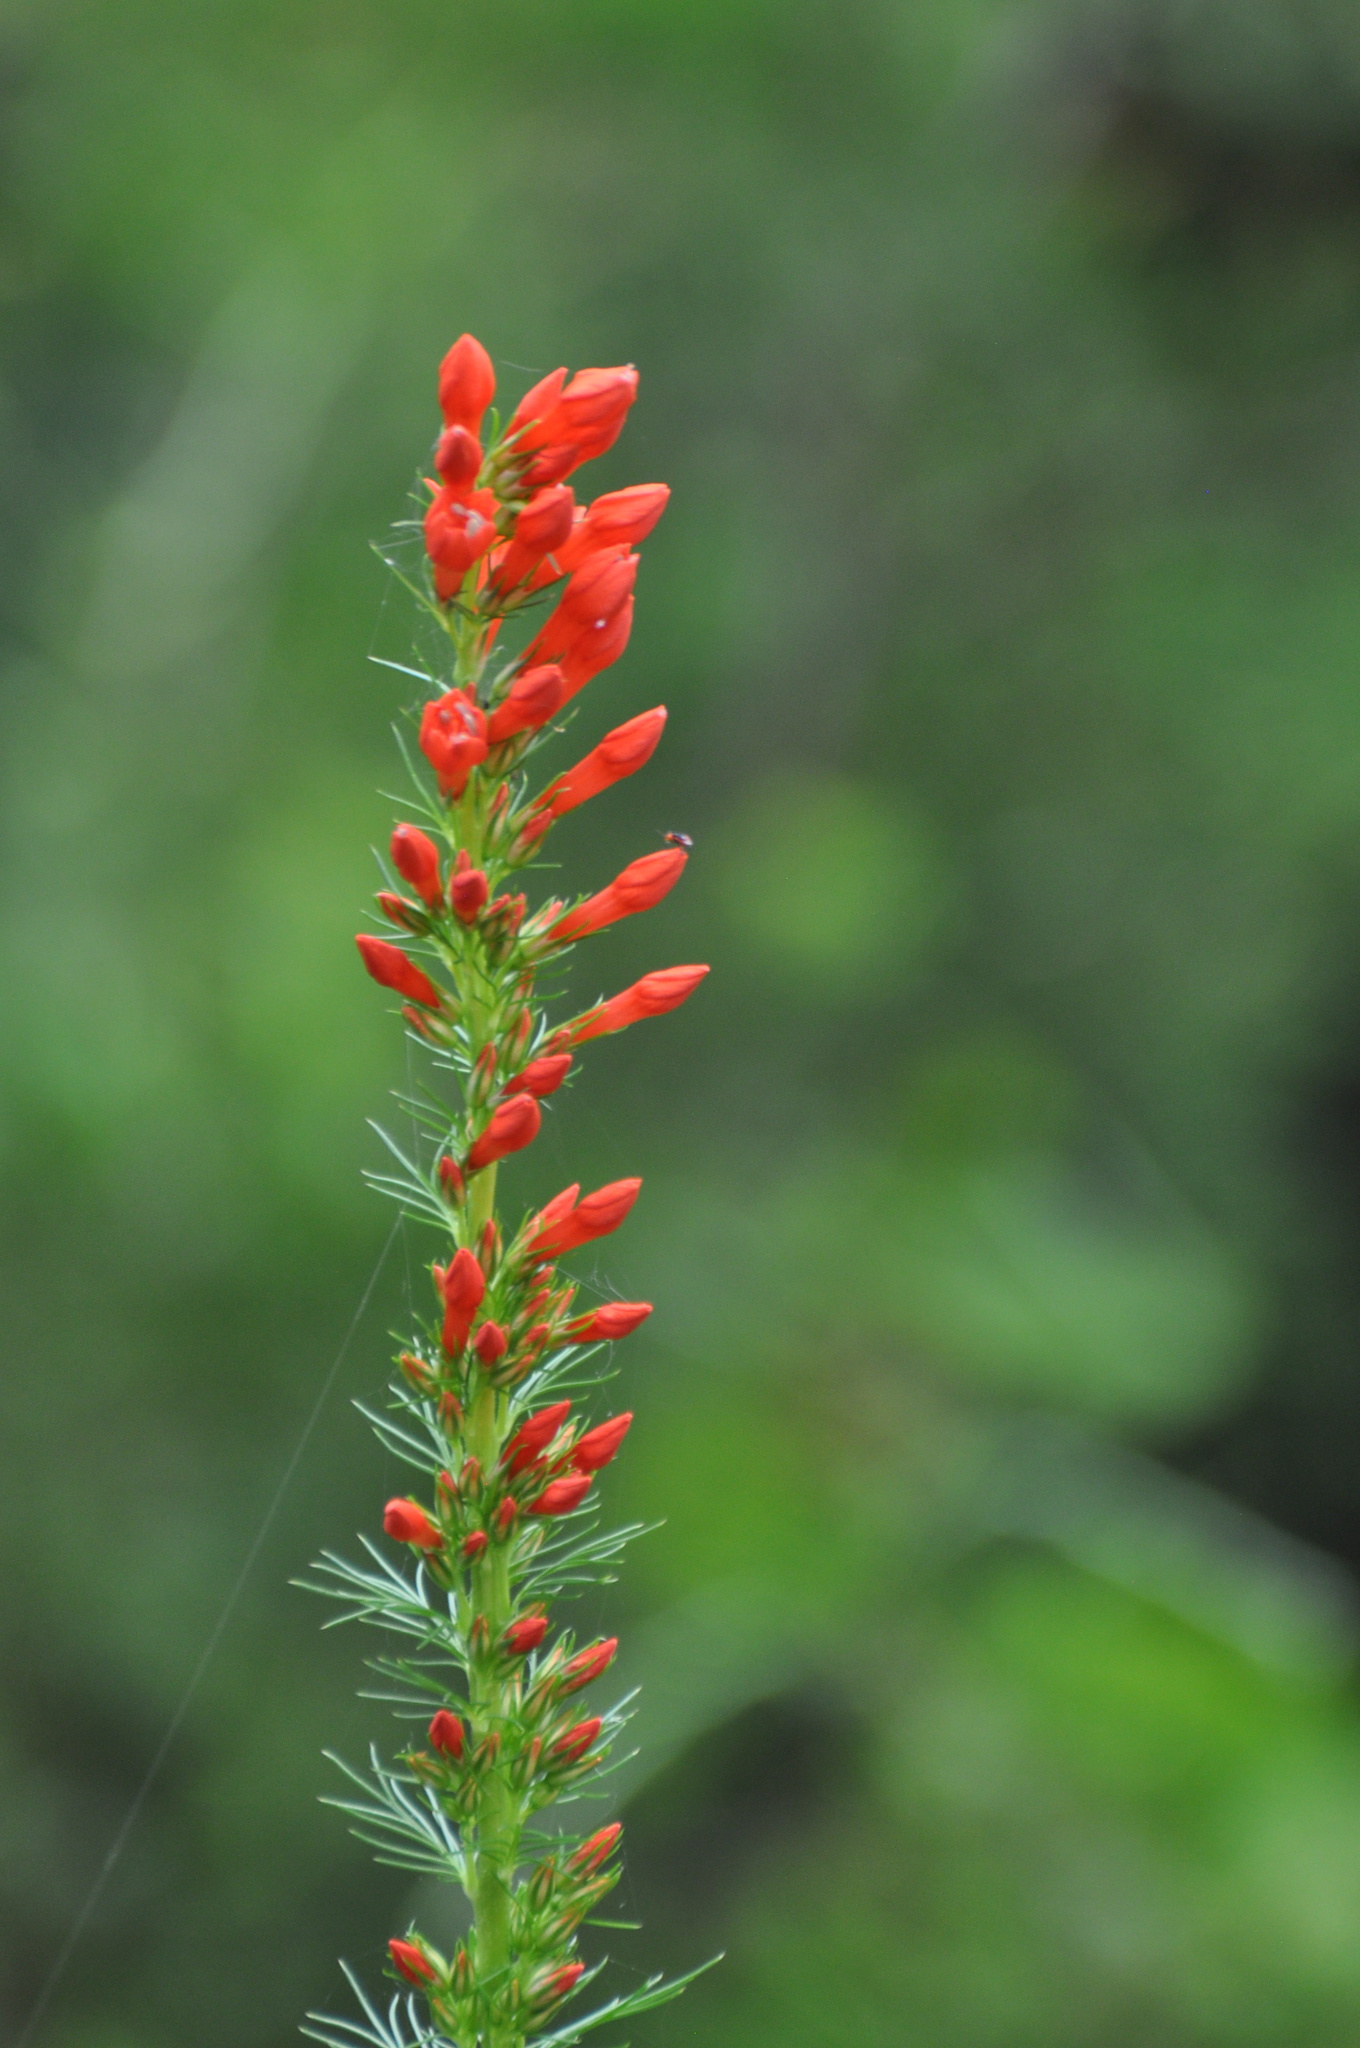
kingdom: Plantae
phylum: Tracheophyta
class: Magnoliopsida
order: Ericales
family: Polemoniaceae
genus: Ipomopsis
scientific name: Ipomopsis rubra
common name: Skyrocket
